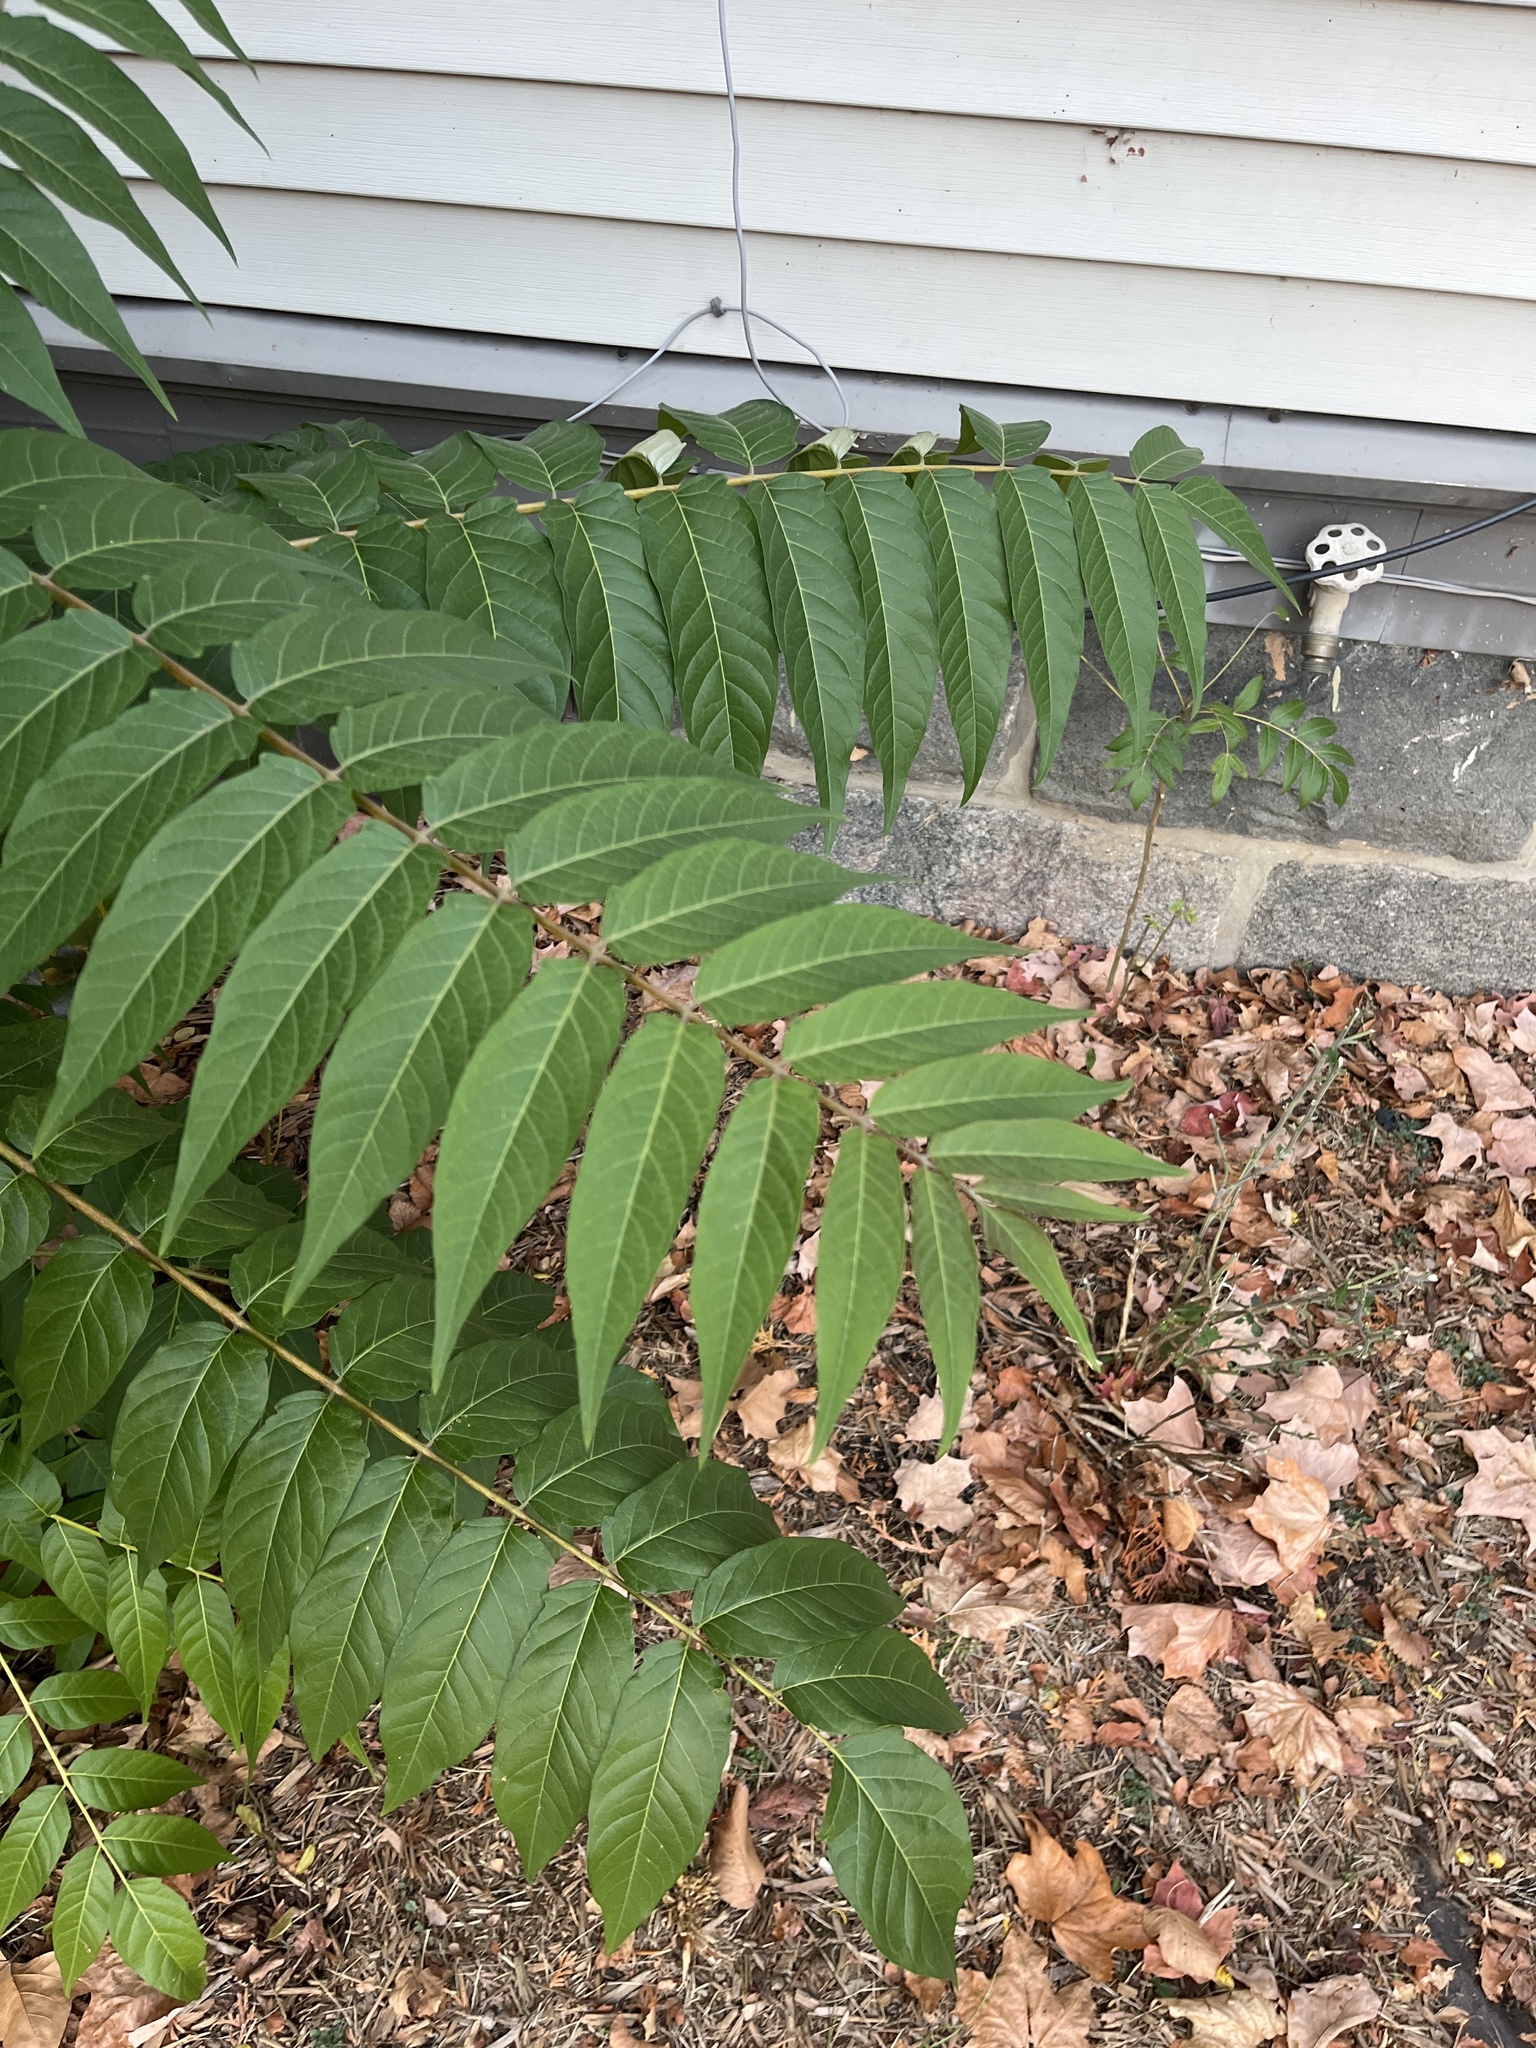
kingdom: Plantae
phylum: Tracheophyta
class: Magnoliopsida
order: Sapindales
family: Simaroubaceae
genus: Ailanthus
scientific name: Ailanthus altissima
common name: Tree-of-heaven
